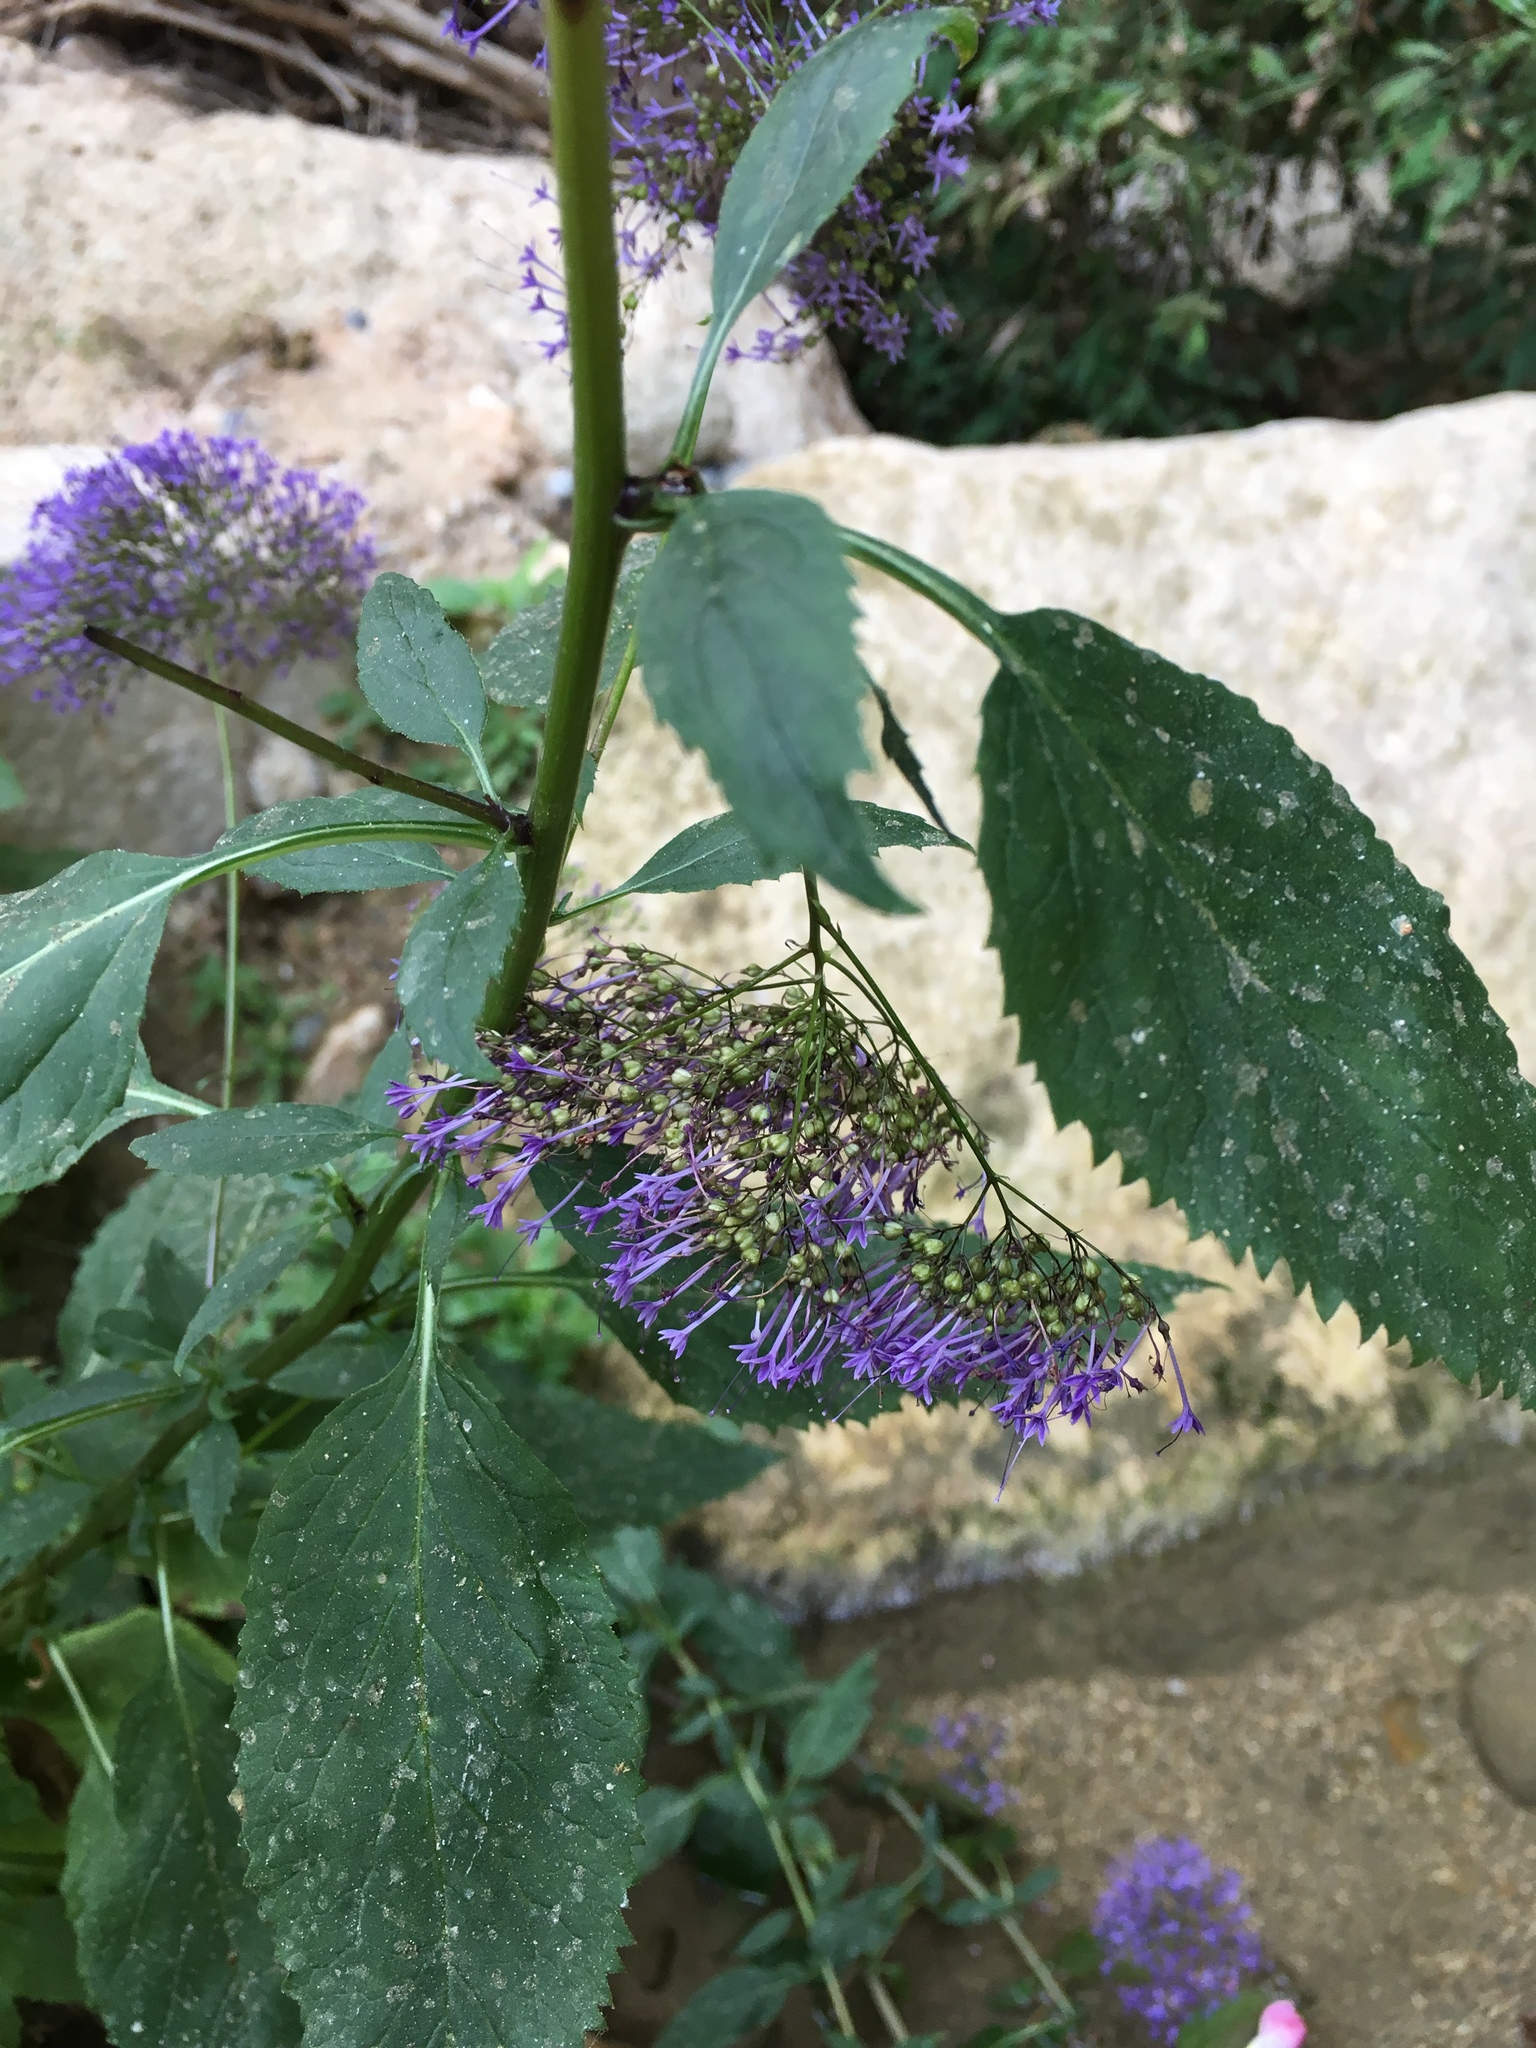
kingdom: Plantae
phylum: Tracheophyta
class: Magnoliopsida
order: Asterales
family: Campanulaceae
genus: Trachelium
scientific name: Trachelium caeruleum
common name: Throatwort
